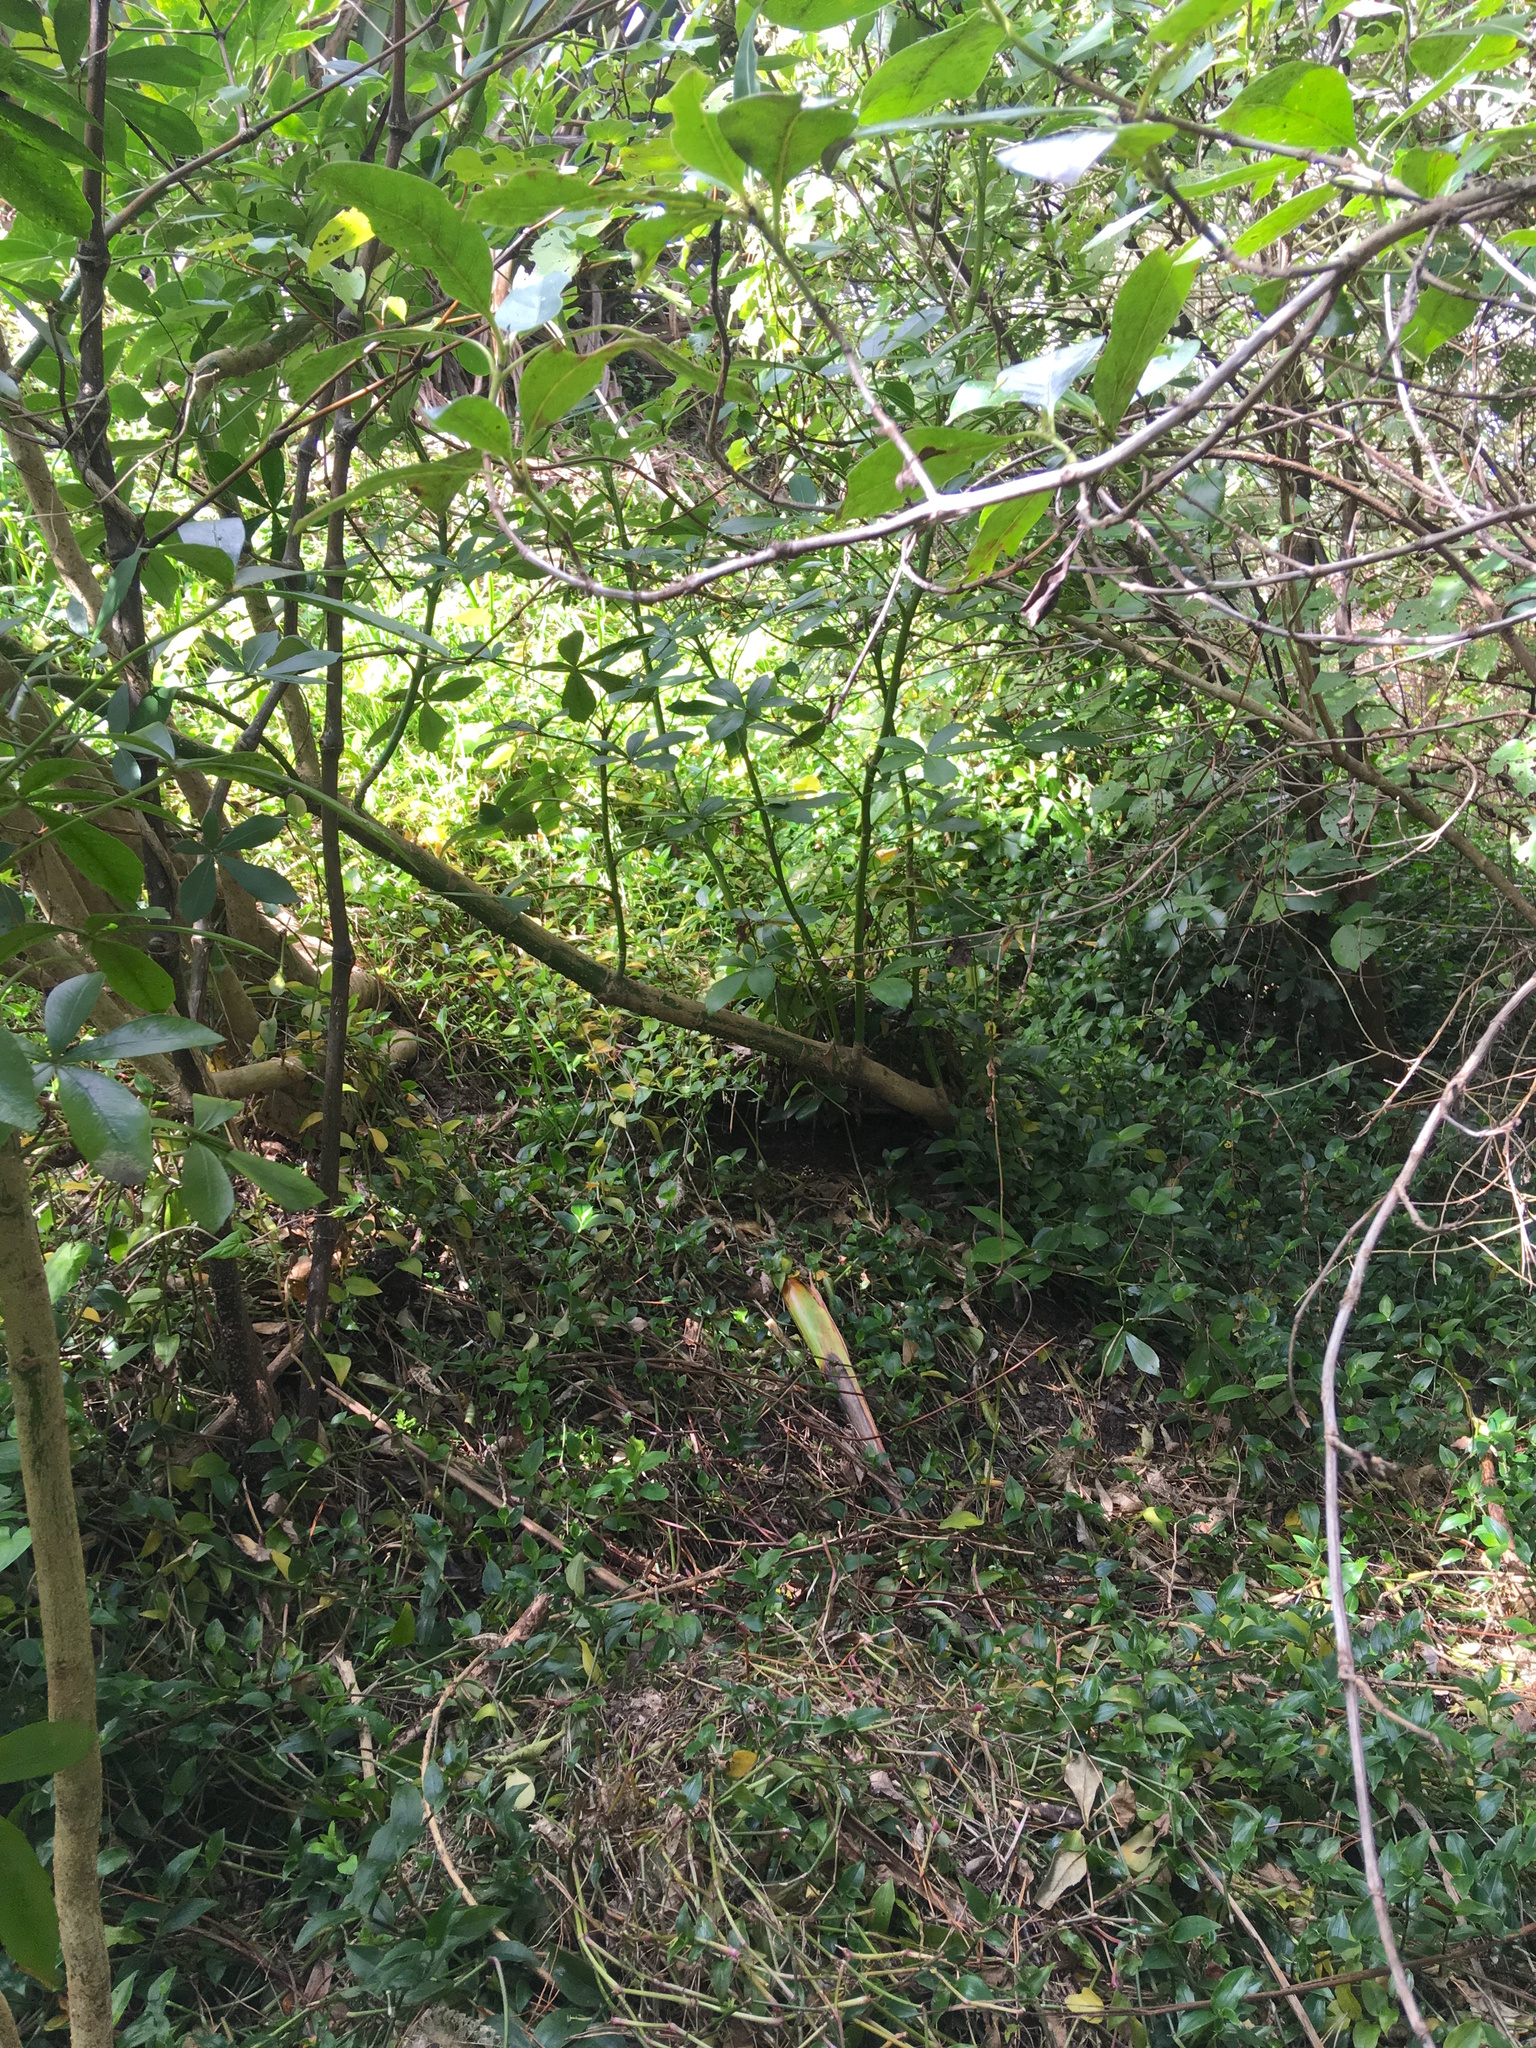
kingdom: Plantae
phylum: Tracheophyta
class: Liliopsida
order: Commelinales
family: Commelinaceae
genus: Tradescantia
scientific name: Tradescantia fluminensis
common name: Wandering-jew
